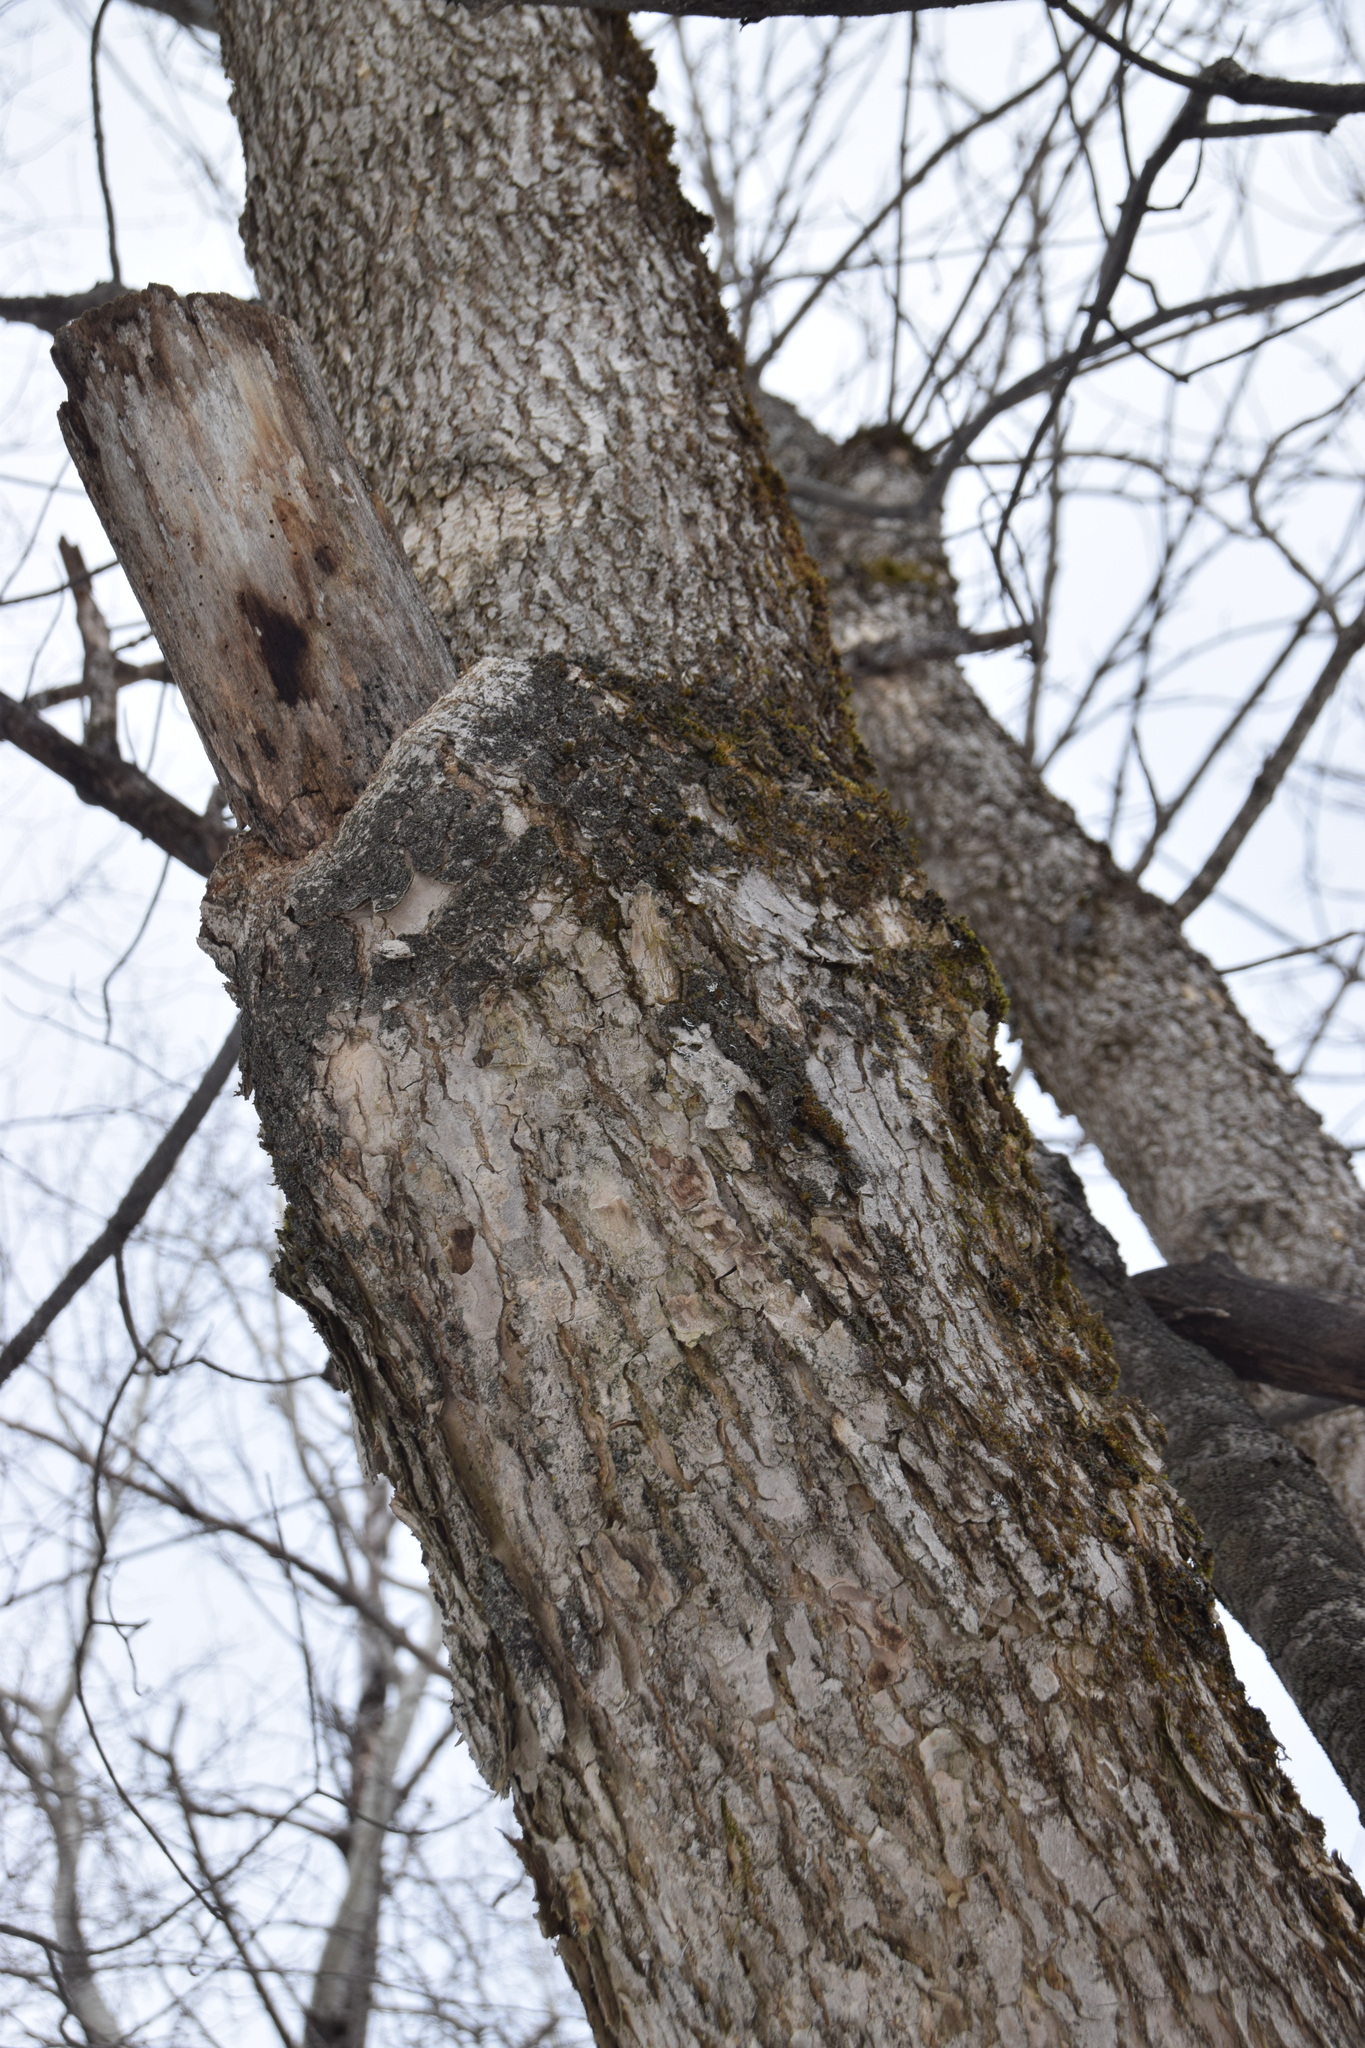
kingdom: Plantae
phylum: Tracheophyta
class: Magnoliopsida
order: Sapindales
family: Sapindaceae
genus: Acer
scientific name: Acer saccharum
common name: Sugar maple
